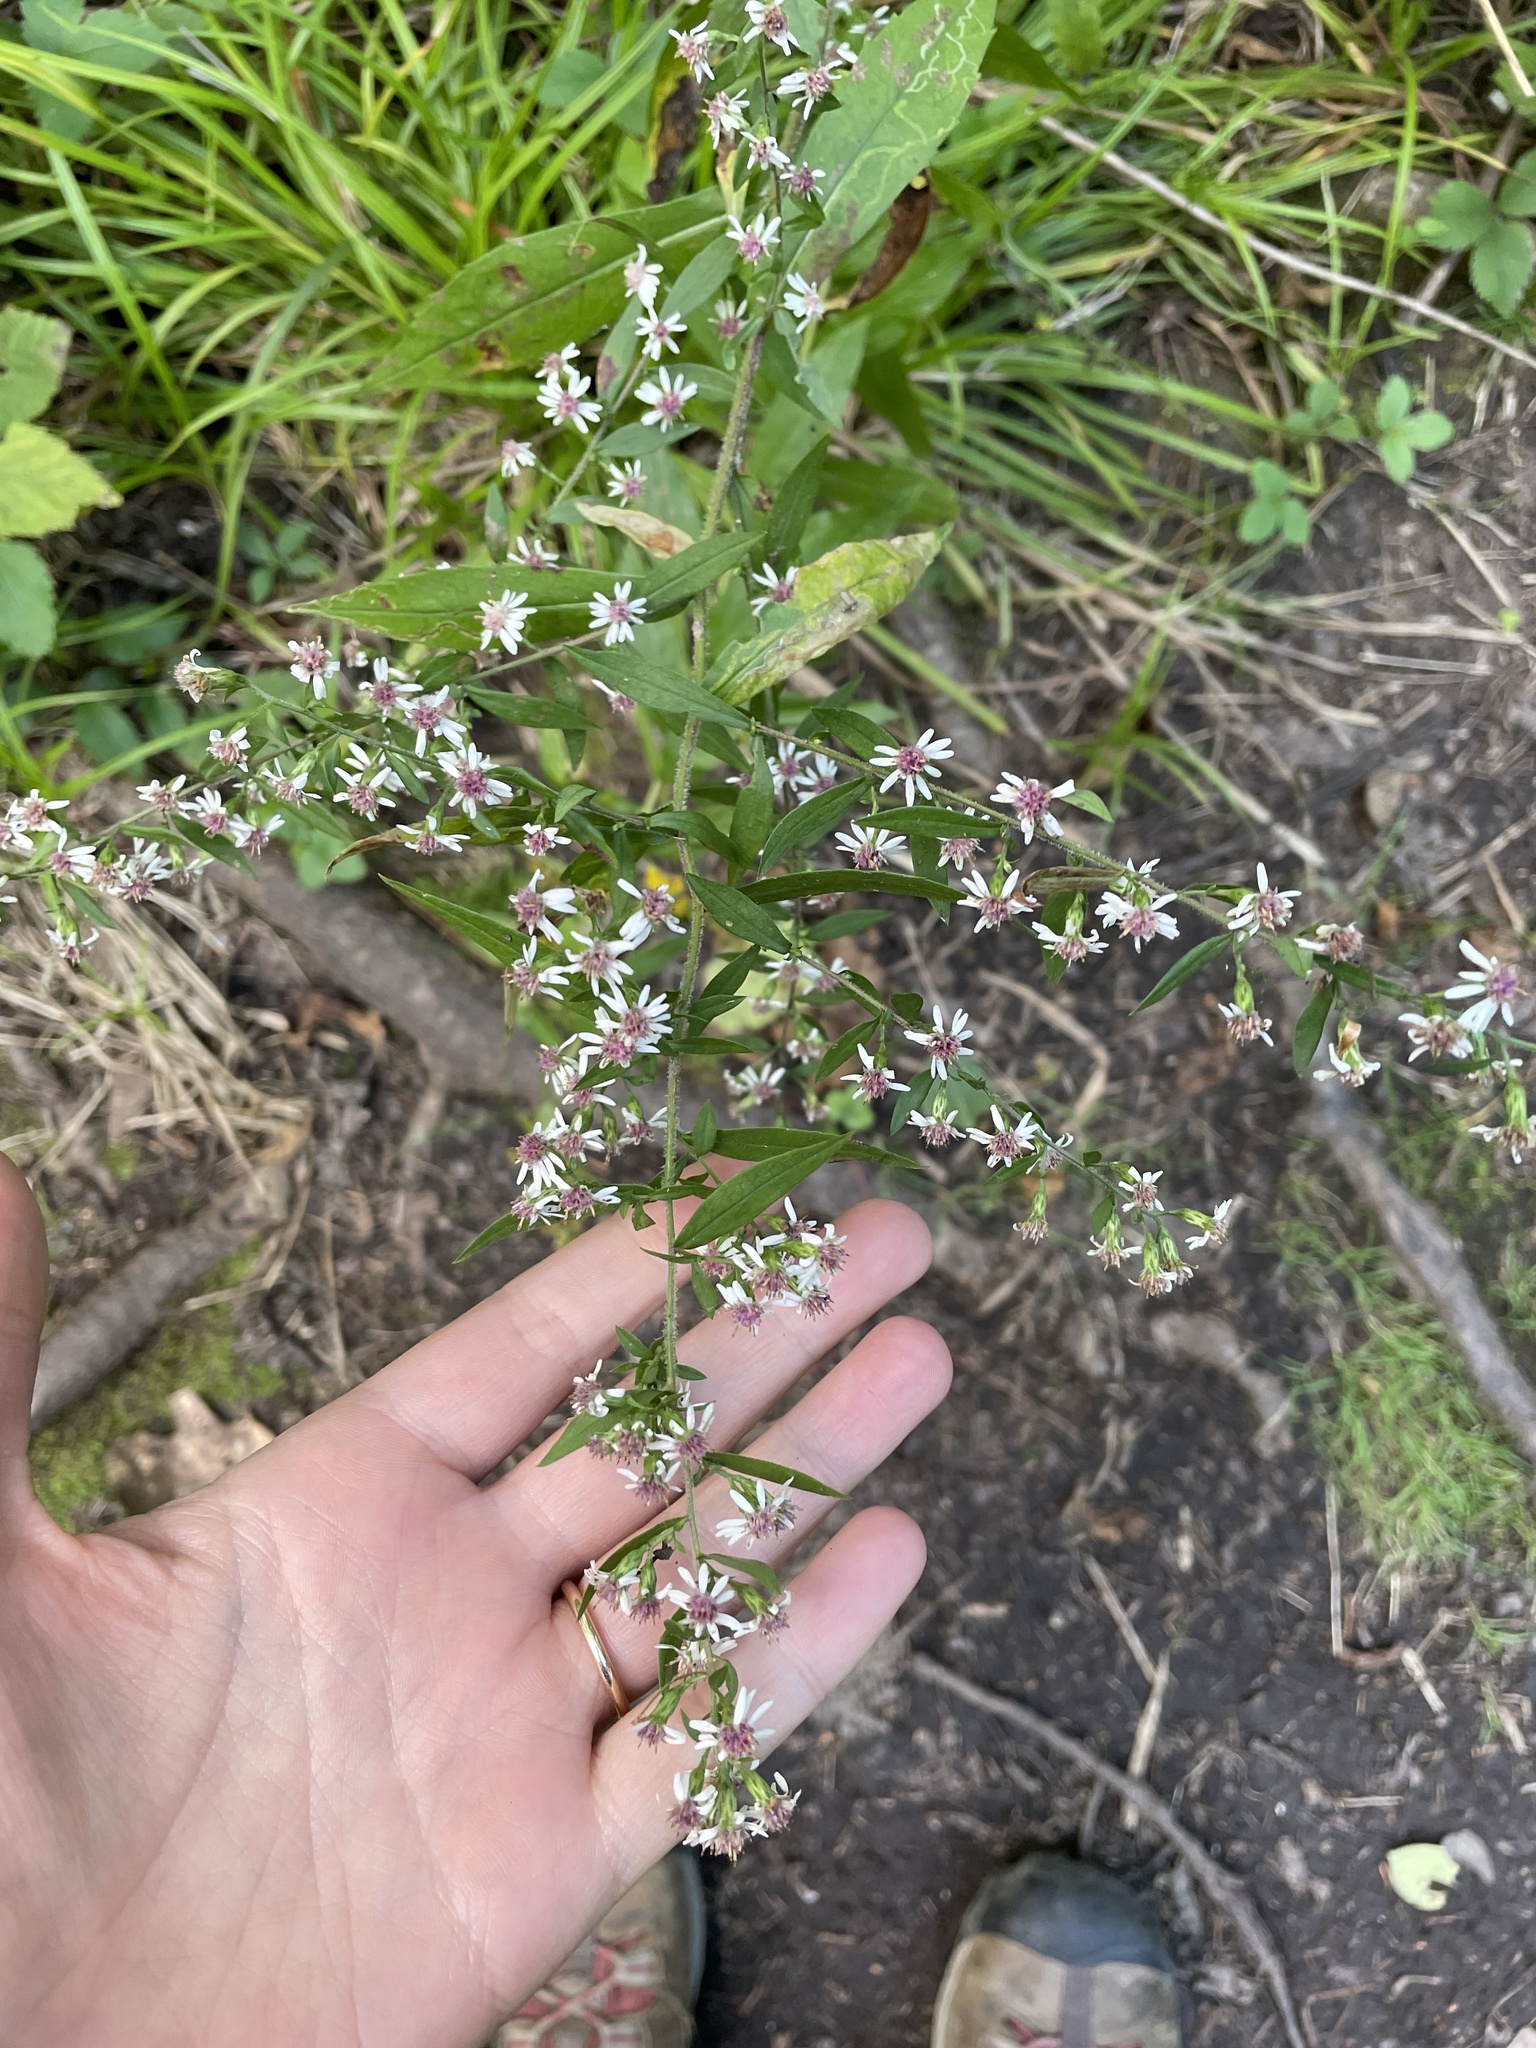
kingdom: Plantae
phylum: Tracheophyta
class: Magnoliopsida
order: Asterales
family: Asteraceae
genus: Symphyotrichum
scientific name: Symphyotrichum lateriflorum
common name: Calico aster
